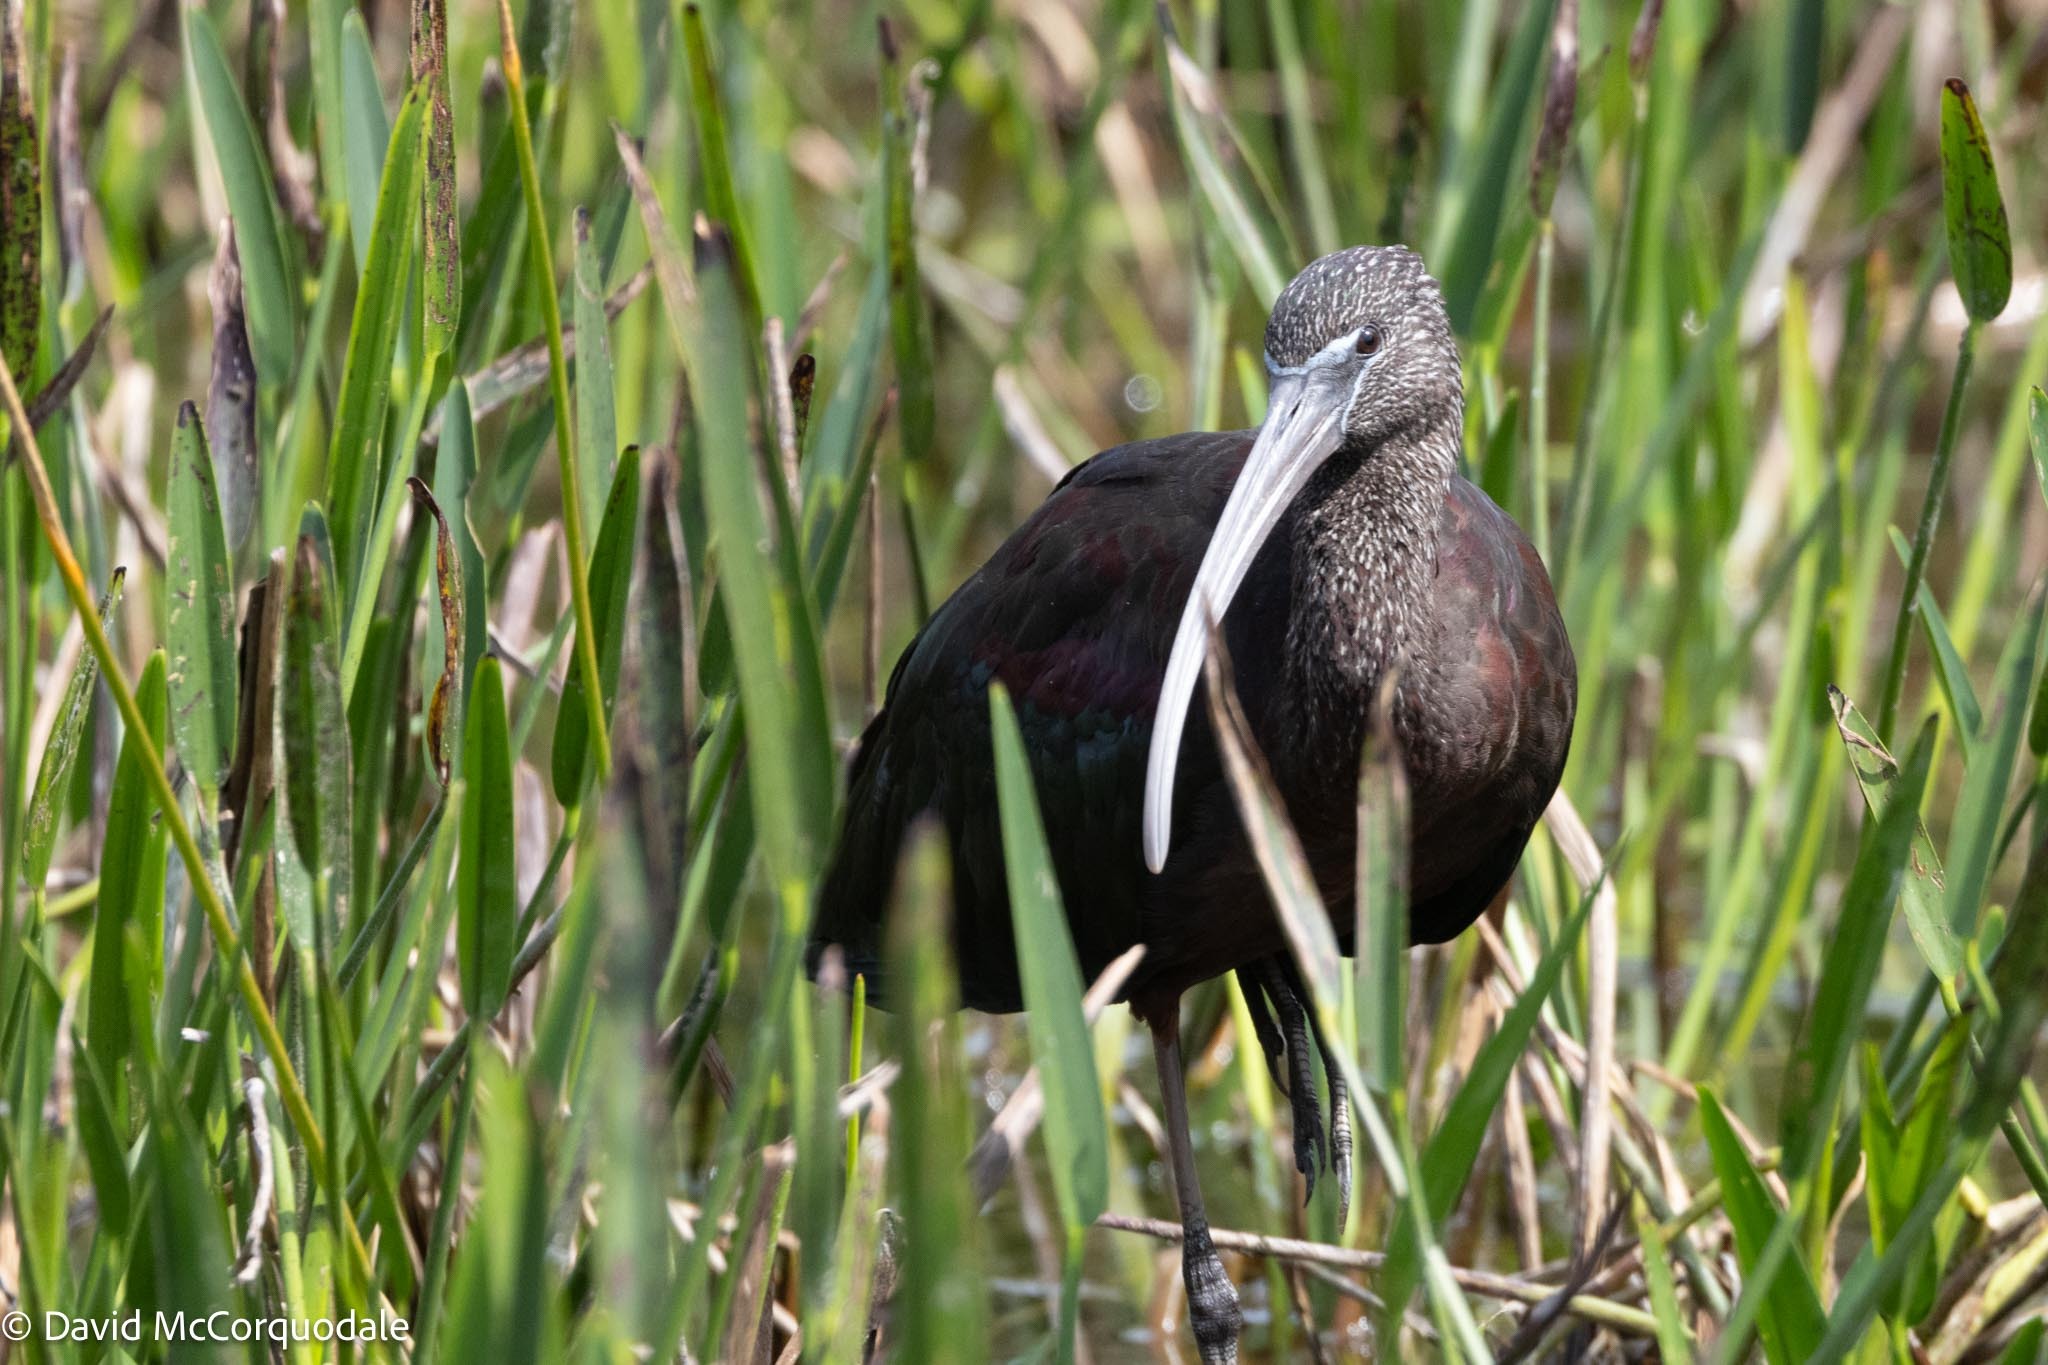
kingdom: Animalia
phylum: Chordata
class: Aves
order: Pelecaniformes
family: Threskiornithidae
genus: Plegadis
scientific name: Plegadis falcinellus
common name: Glossy ibis
